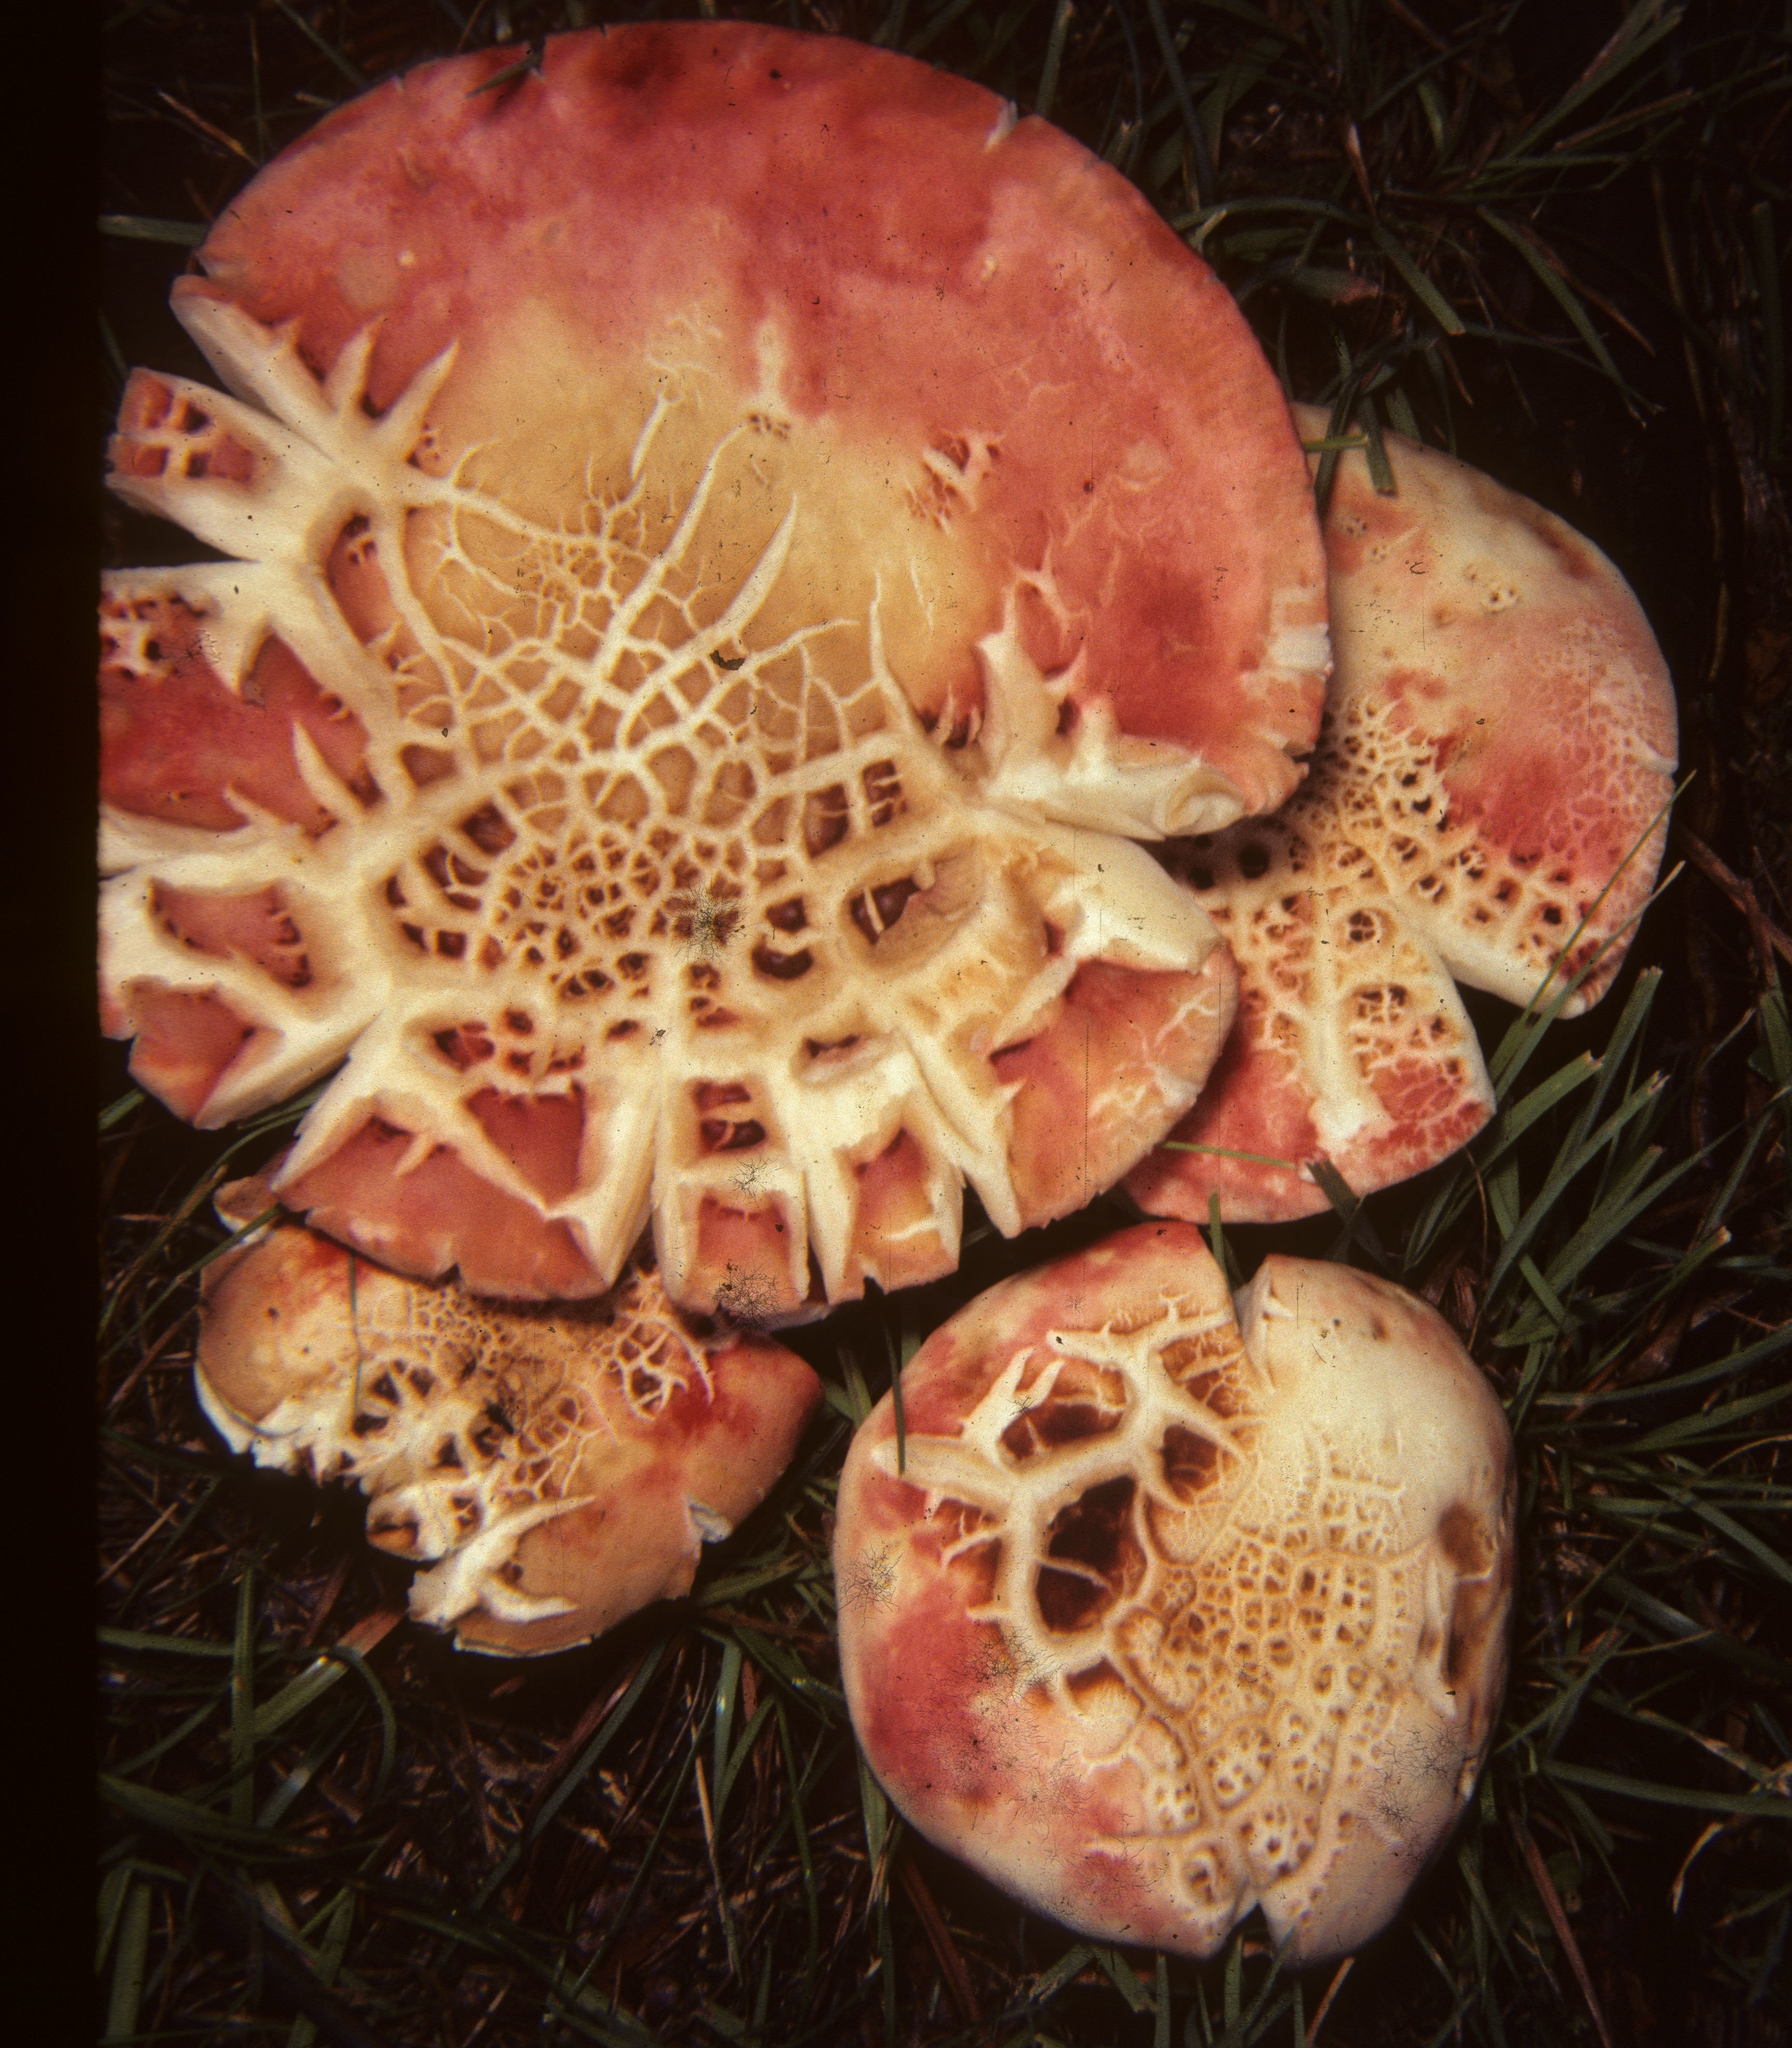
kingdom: Fungi
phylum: Basidiomycota
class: Agaricomycetes
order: Russulales
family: Russulaceae
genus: Russula
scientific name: Russula pulchra
